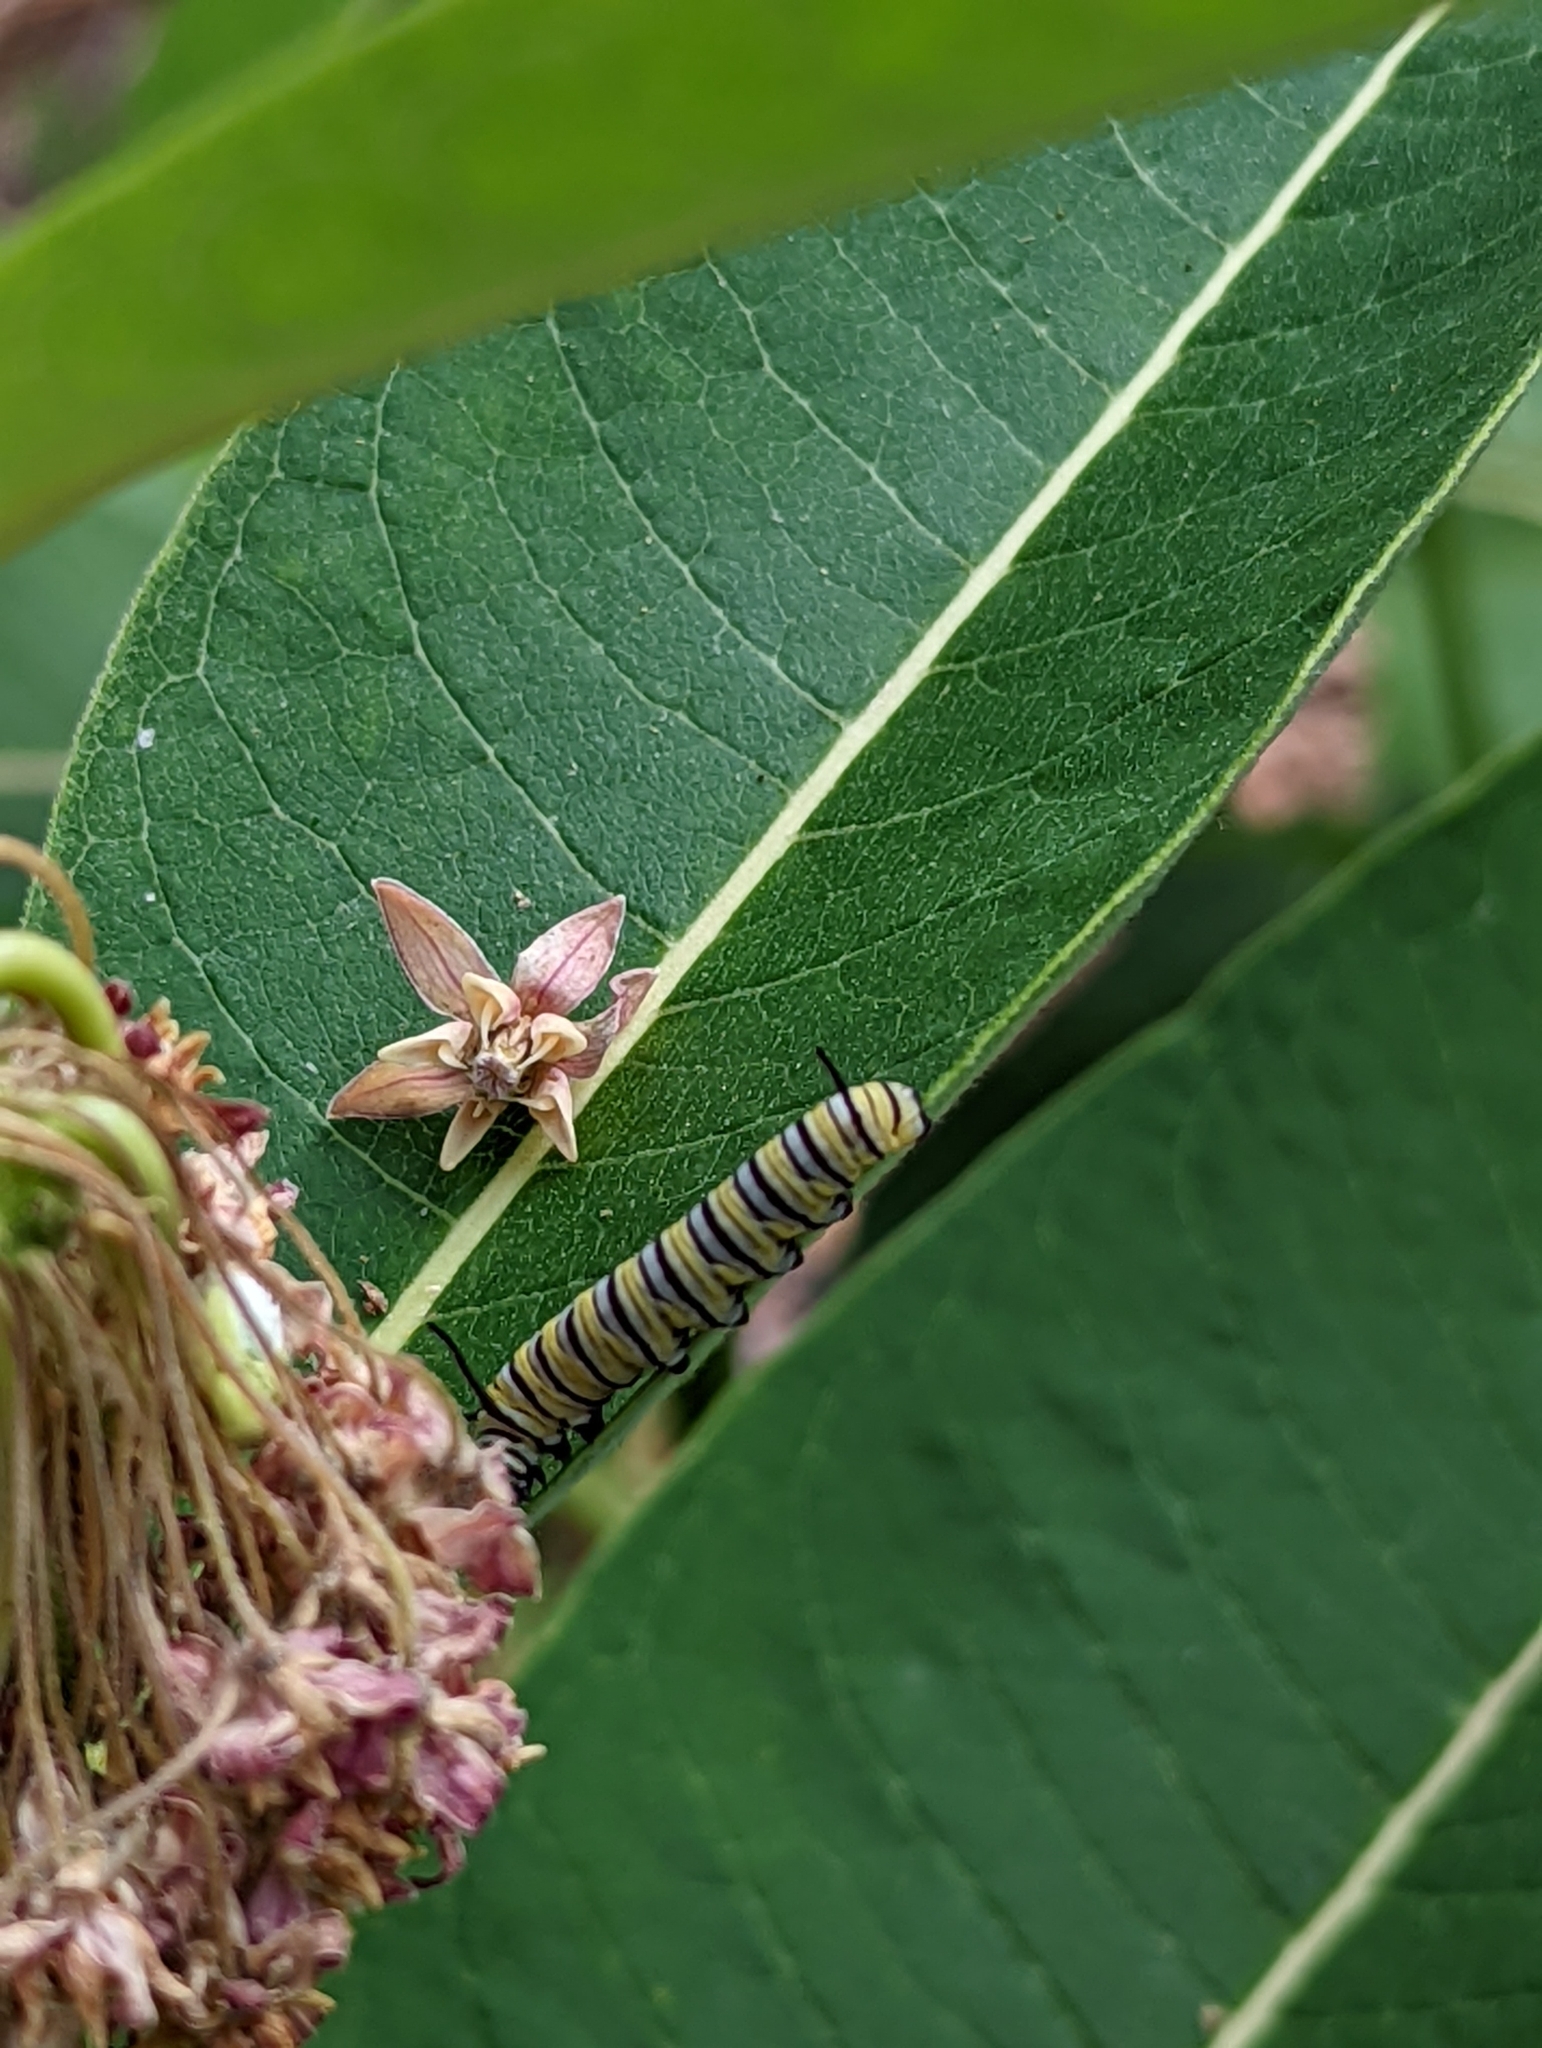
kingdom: Animalia
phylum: Arthropoda
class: Insecta
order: Lepidoptera
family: Nymphalidae
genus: Danaus
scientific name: Danaus plexippus
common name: Monarch
